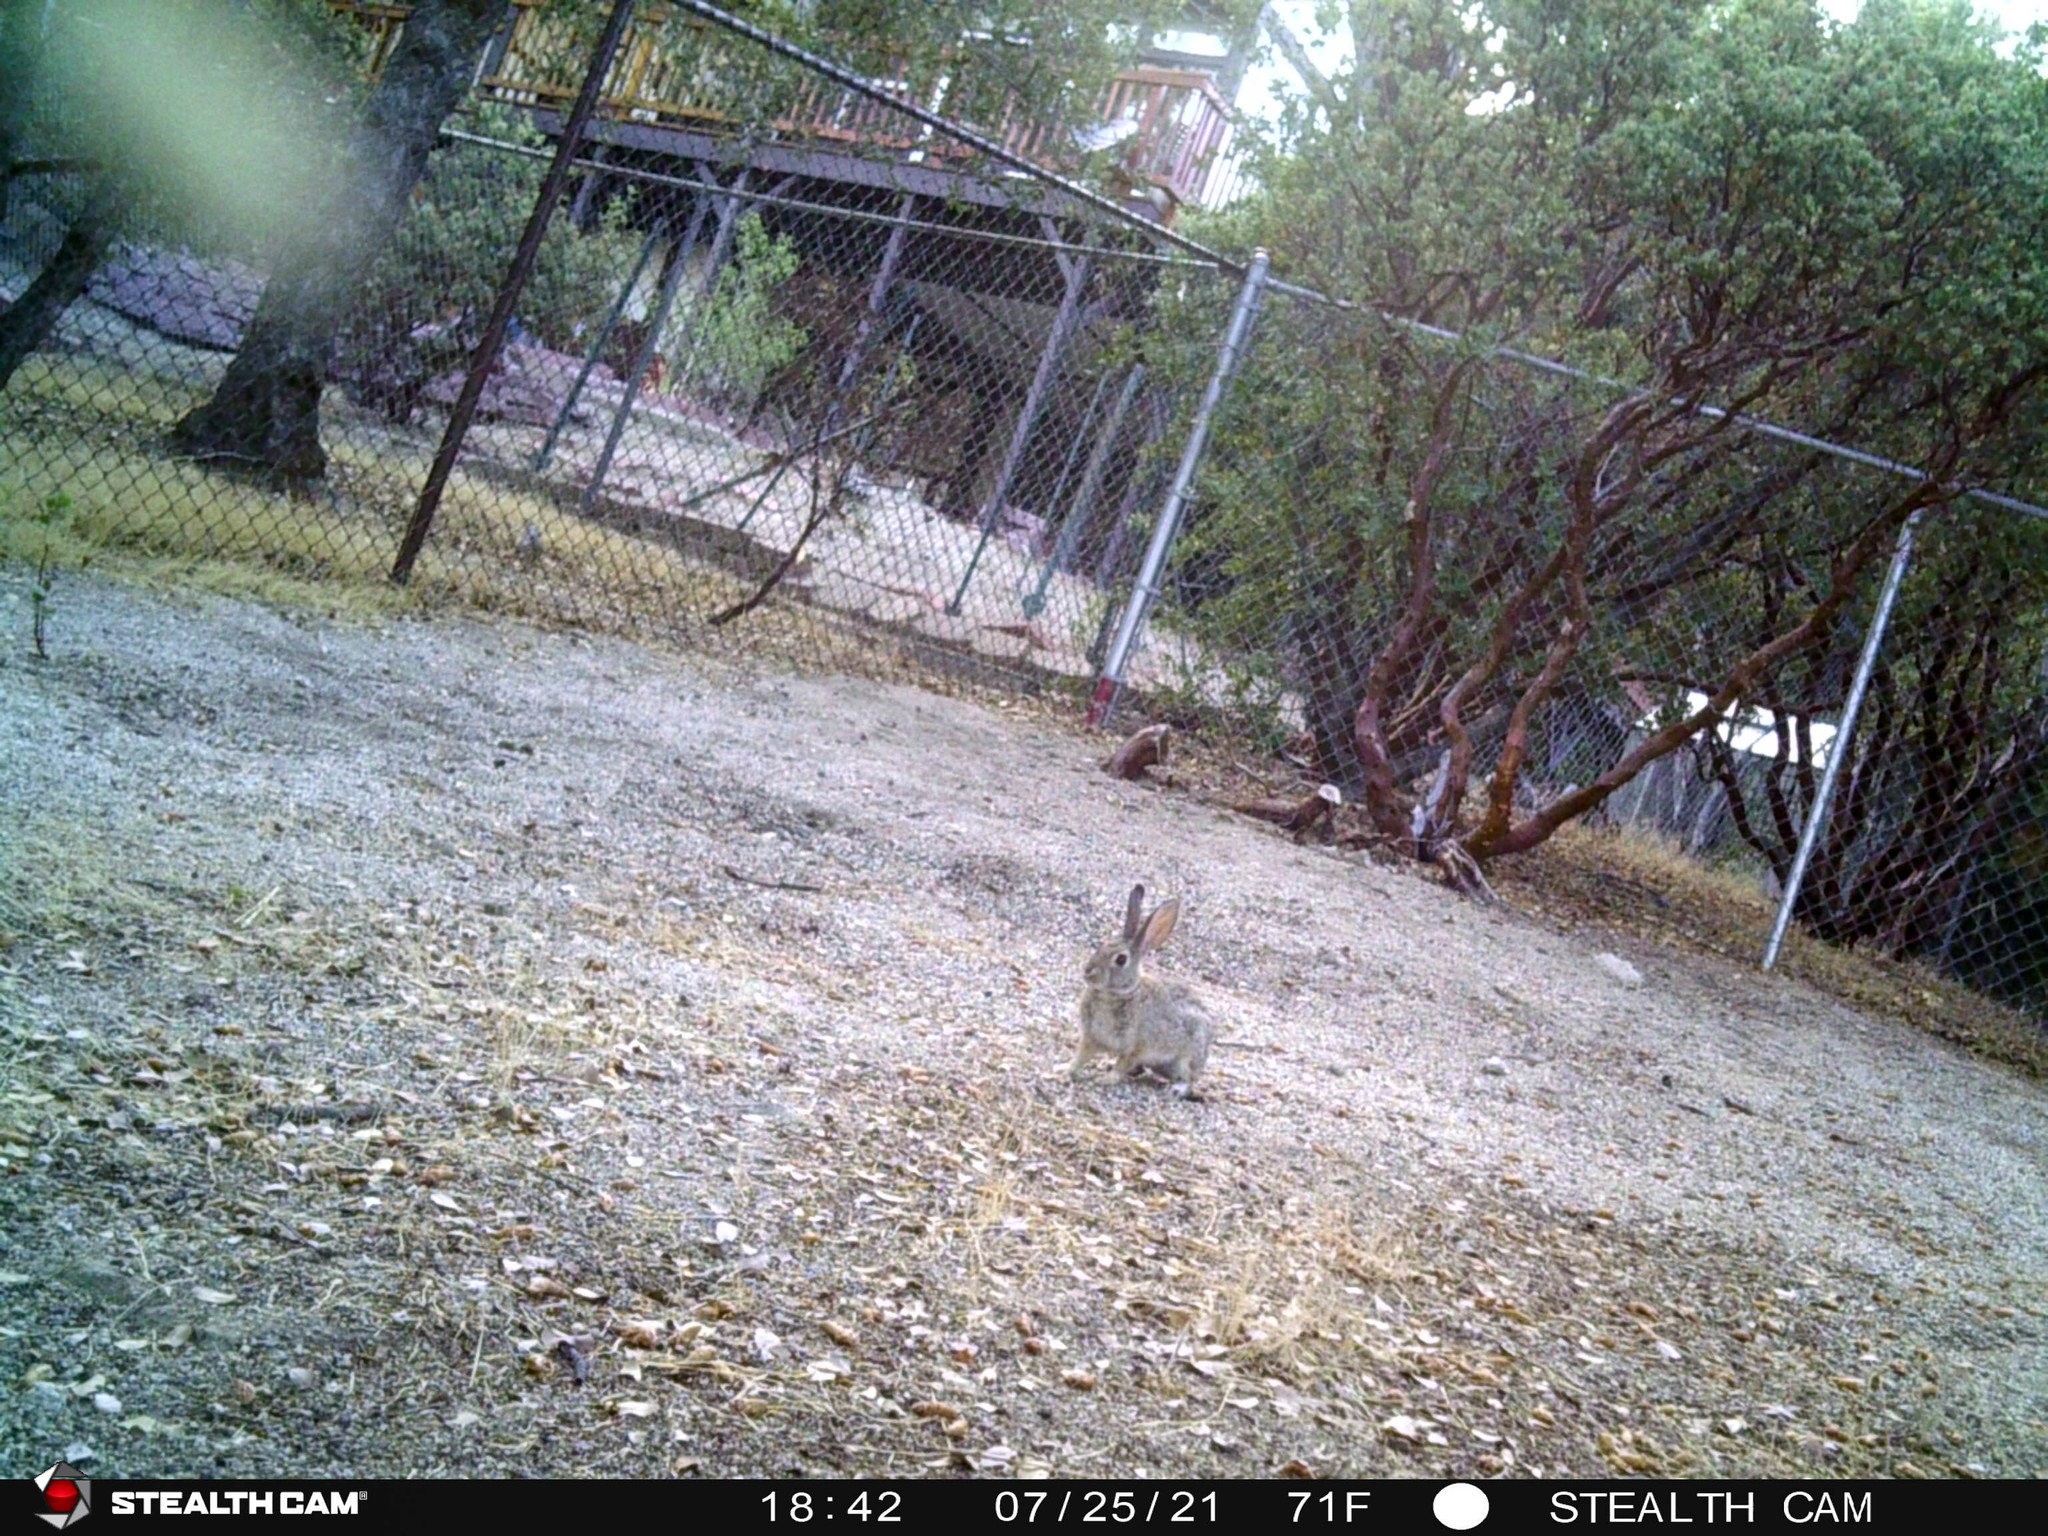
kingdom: Animalia
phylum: Chordata
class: Mammalia
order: Lagomorpha
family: Leporidae
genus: Sylvilagus
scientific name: Sylvilagus audubonii
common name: Desert cottontail
